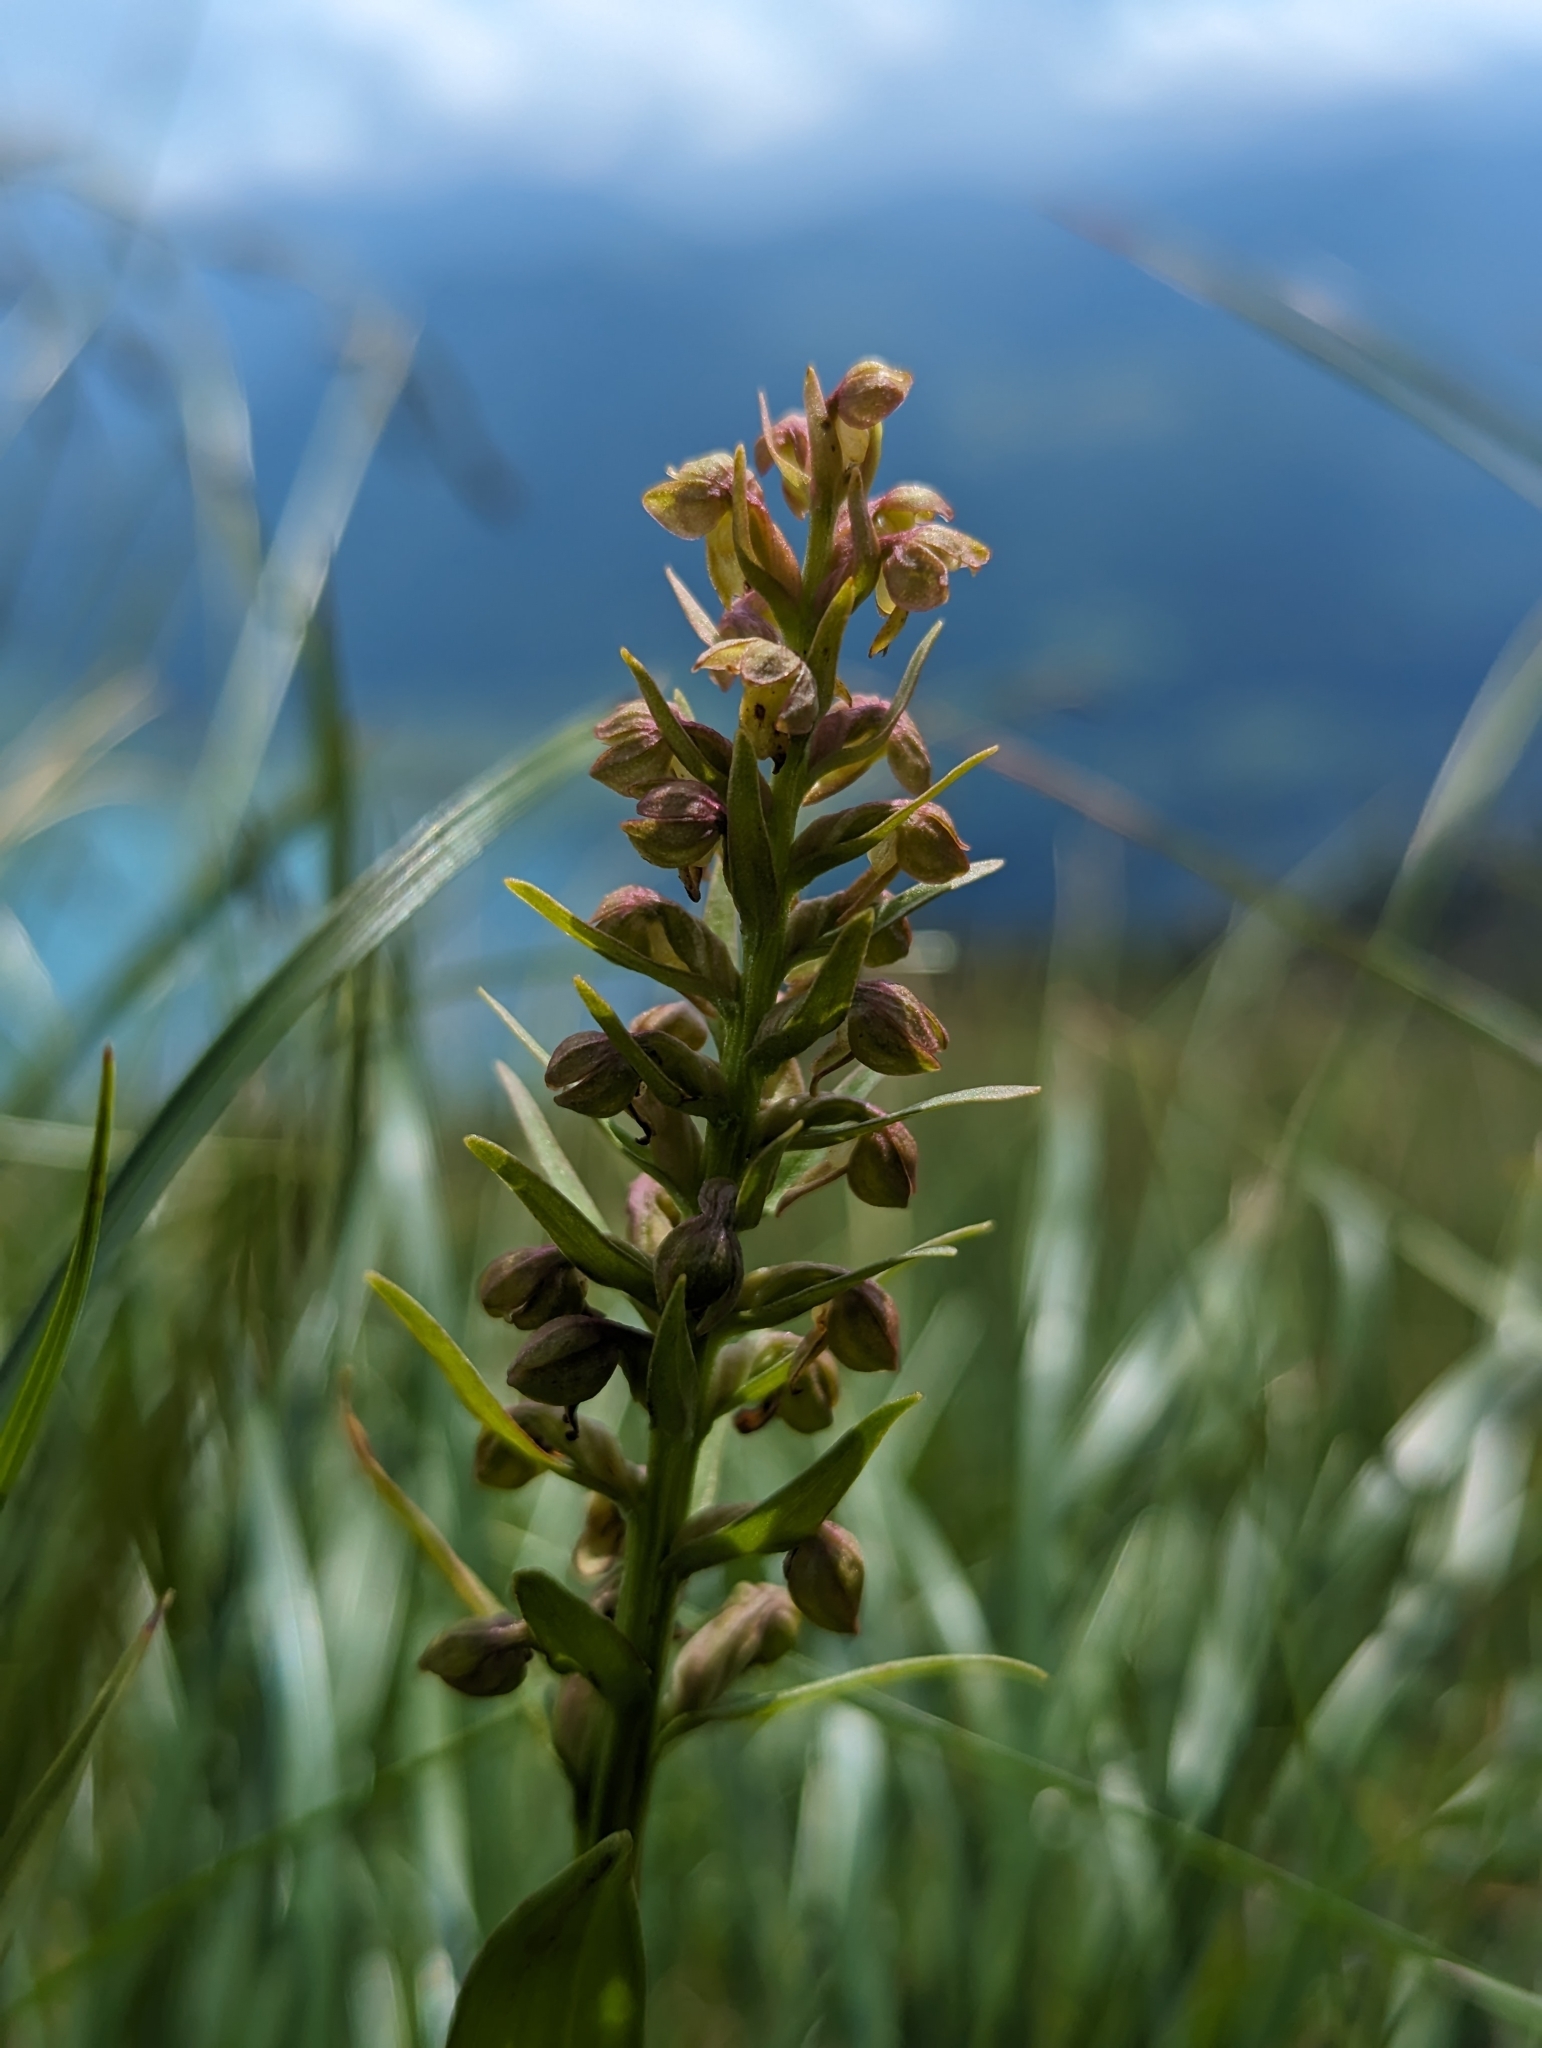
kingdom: Plantae
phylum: Tracheophyta
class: Liliopsida
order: Asparagales
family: Orchidaceae
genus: Dactylorhiza
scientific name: Dactylorhiza viridis
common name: Longbract frog orchid
